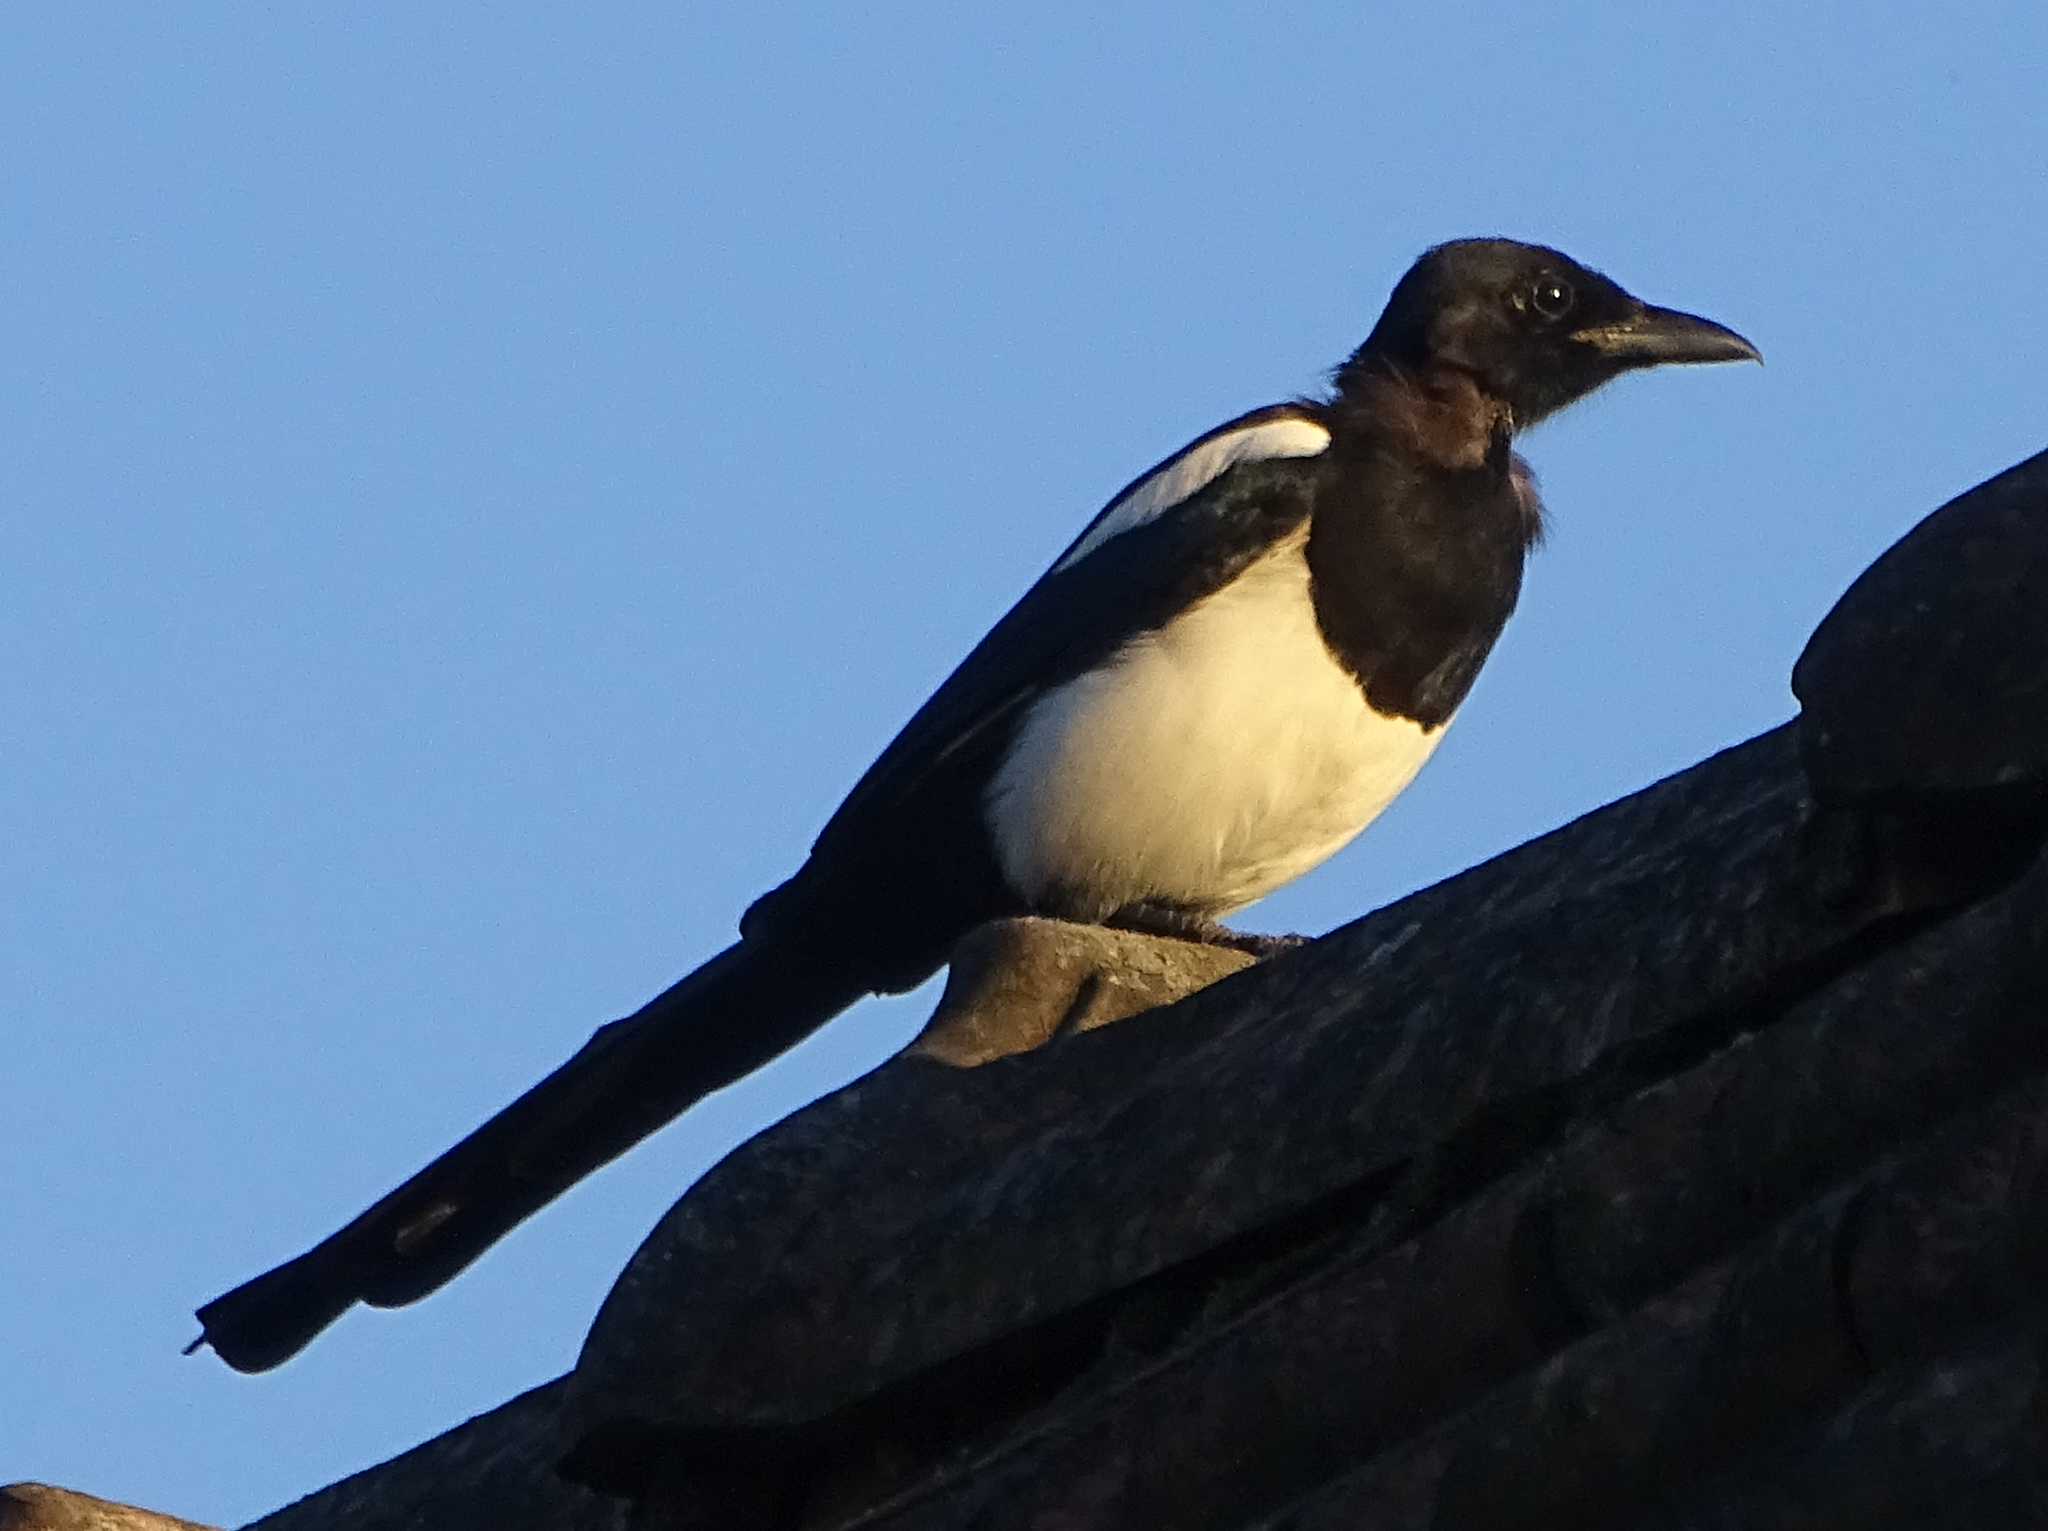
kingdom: Animalia
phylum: Chordata
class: Aves
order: Passeriformes
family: Corvidae
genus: Pica
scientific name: Pica pica
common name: Eurasian magpie
